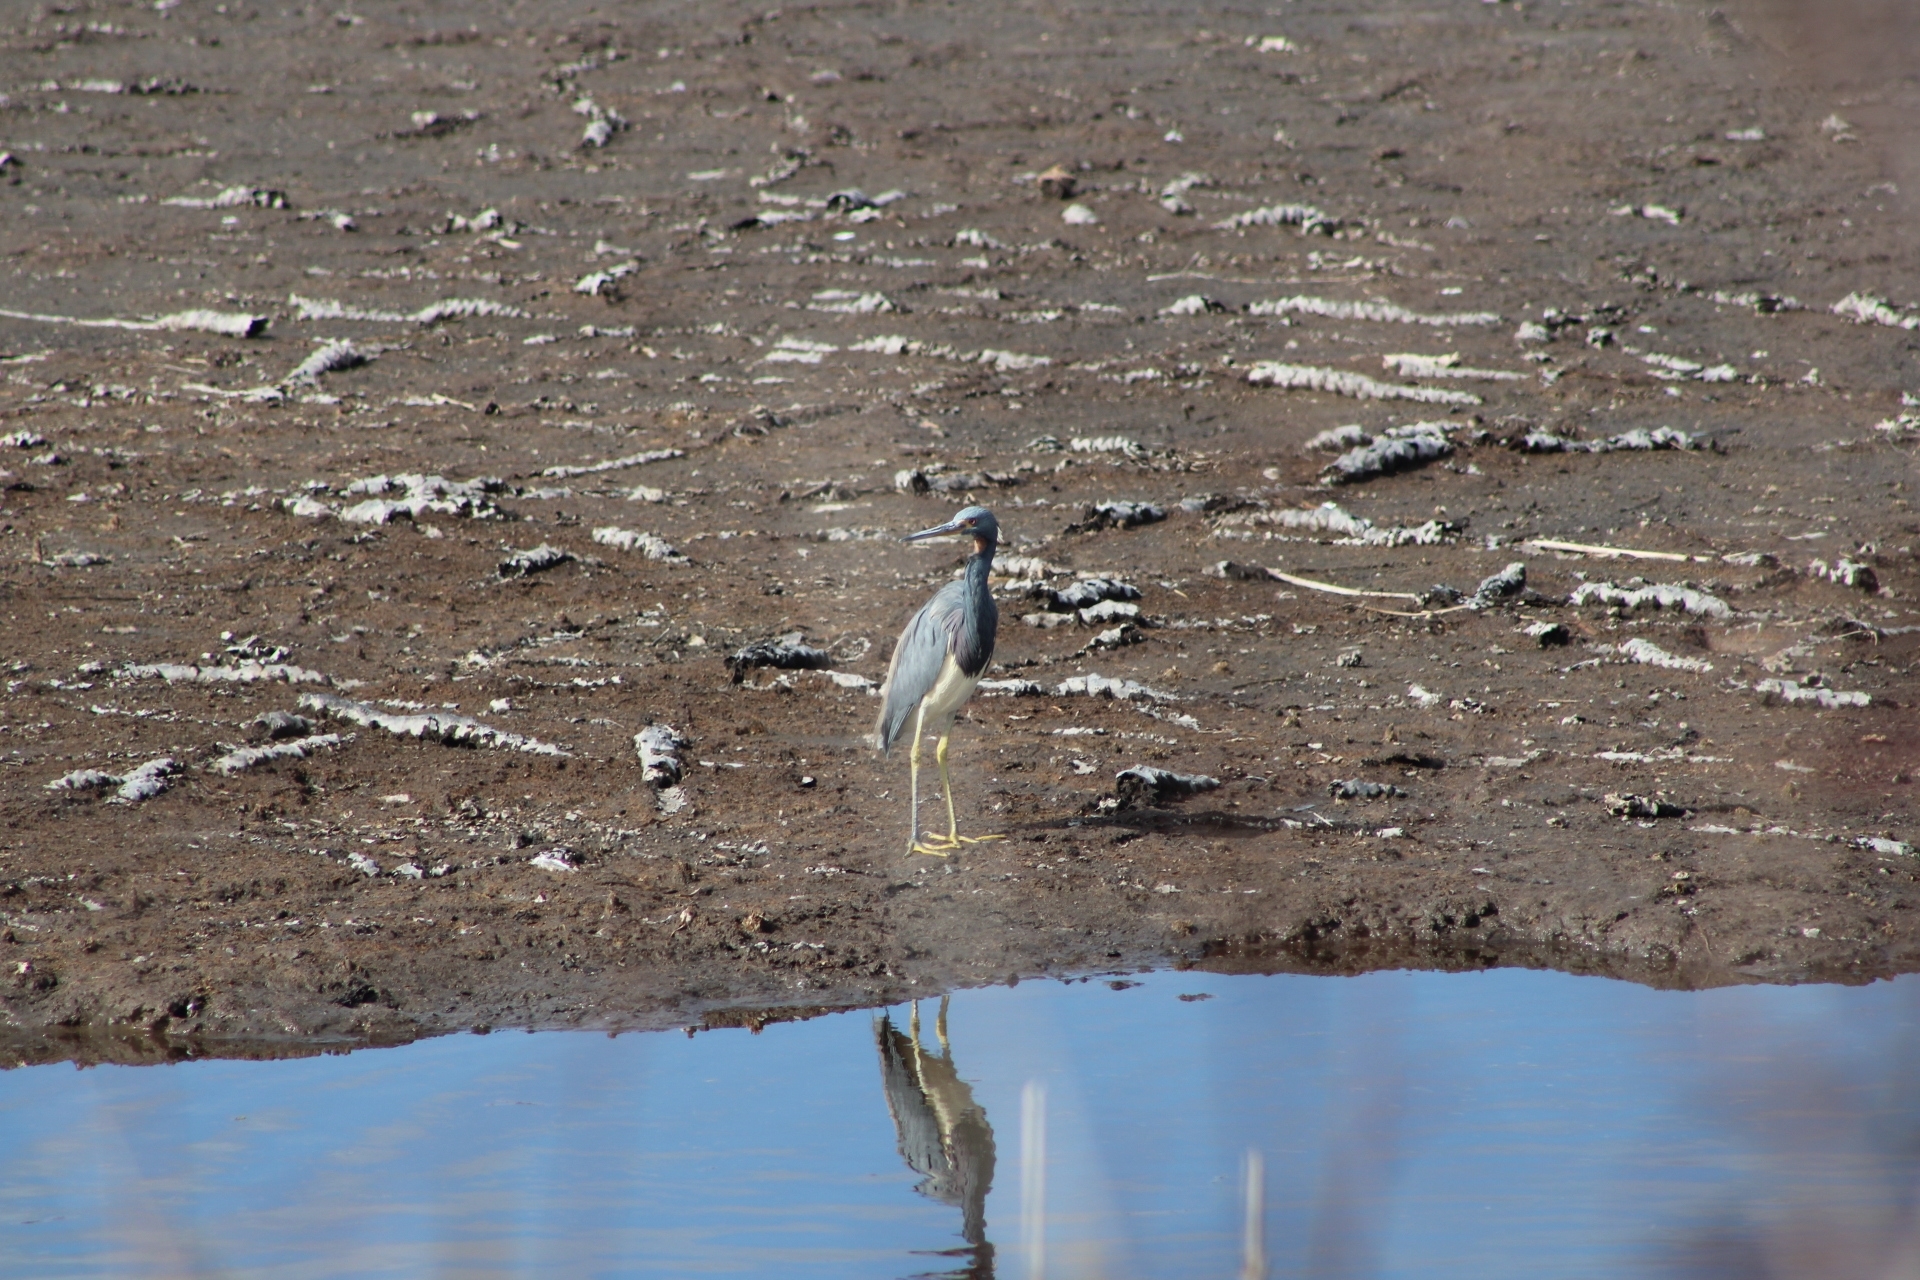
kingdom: Animalia
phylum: Chordata
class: Aves
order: Pelecaniformes
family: Ardeidae
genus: Egretta
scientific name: Egretta tricolor
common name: Tricolored heron
